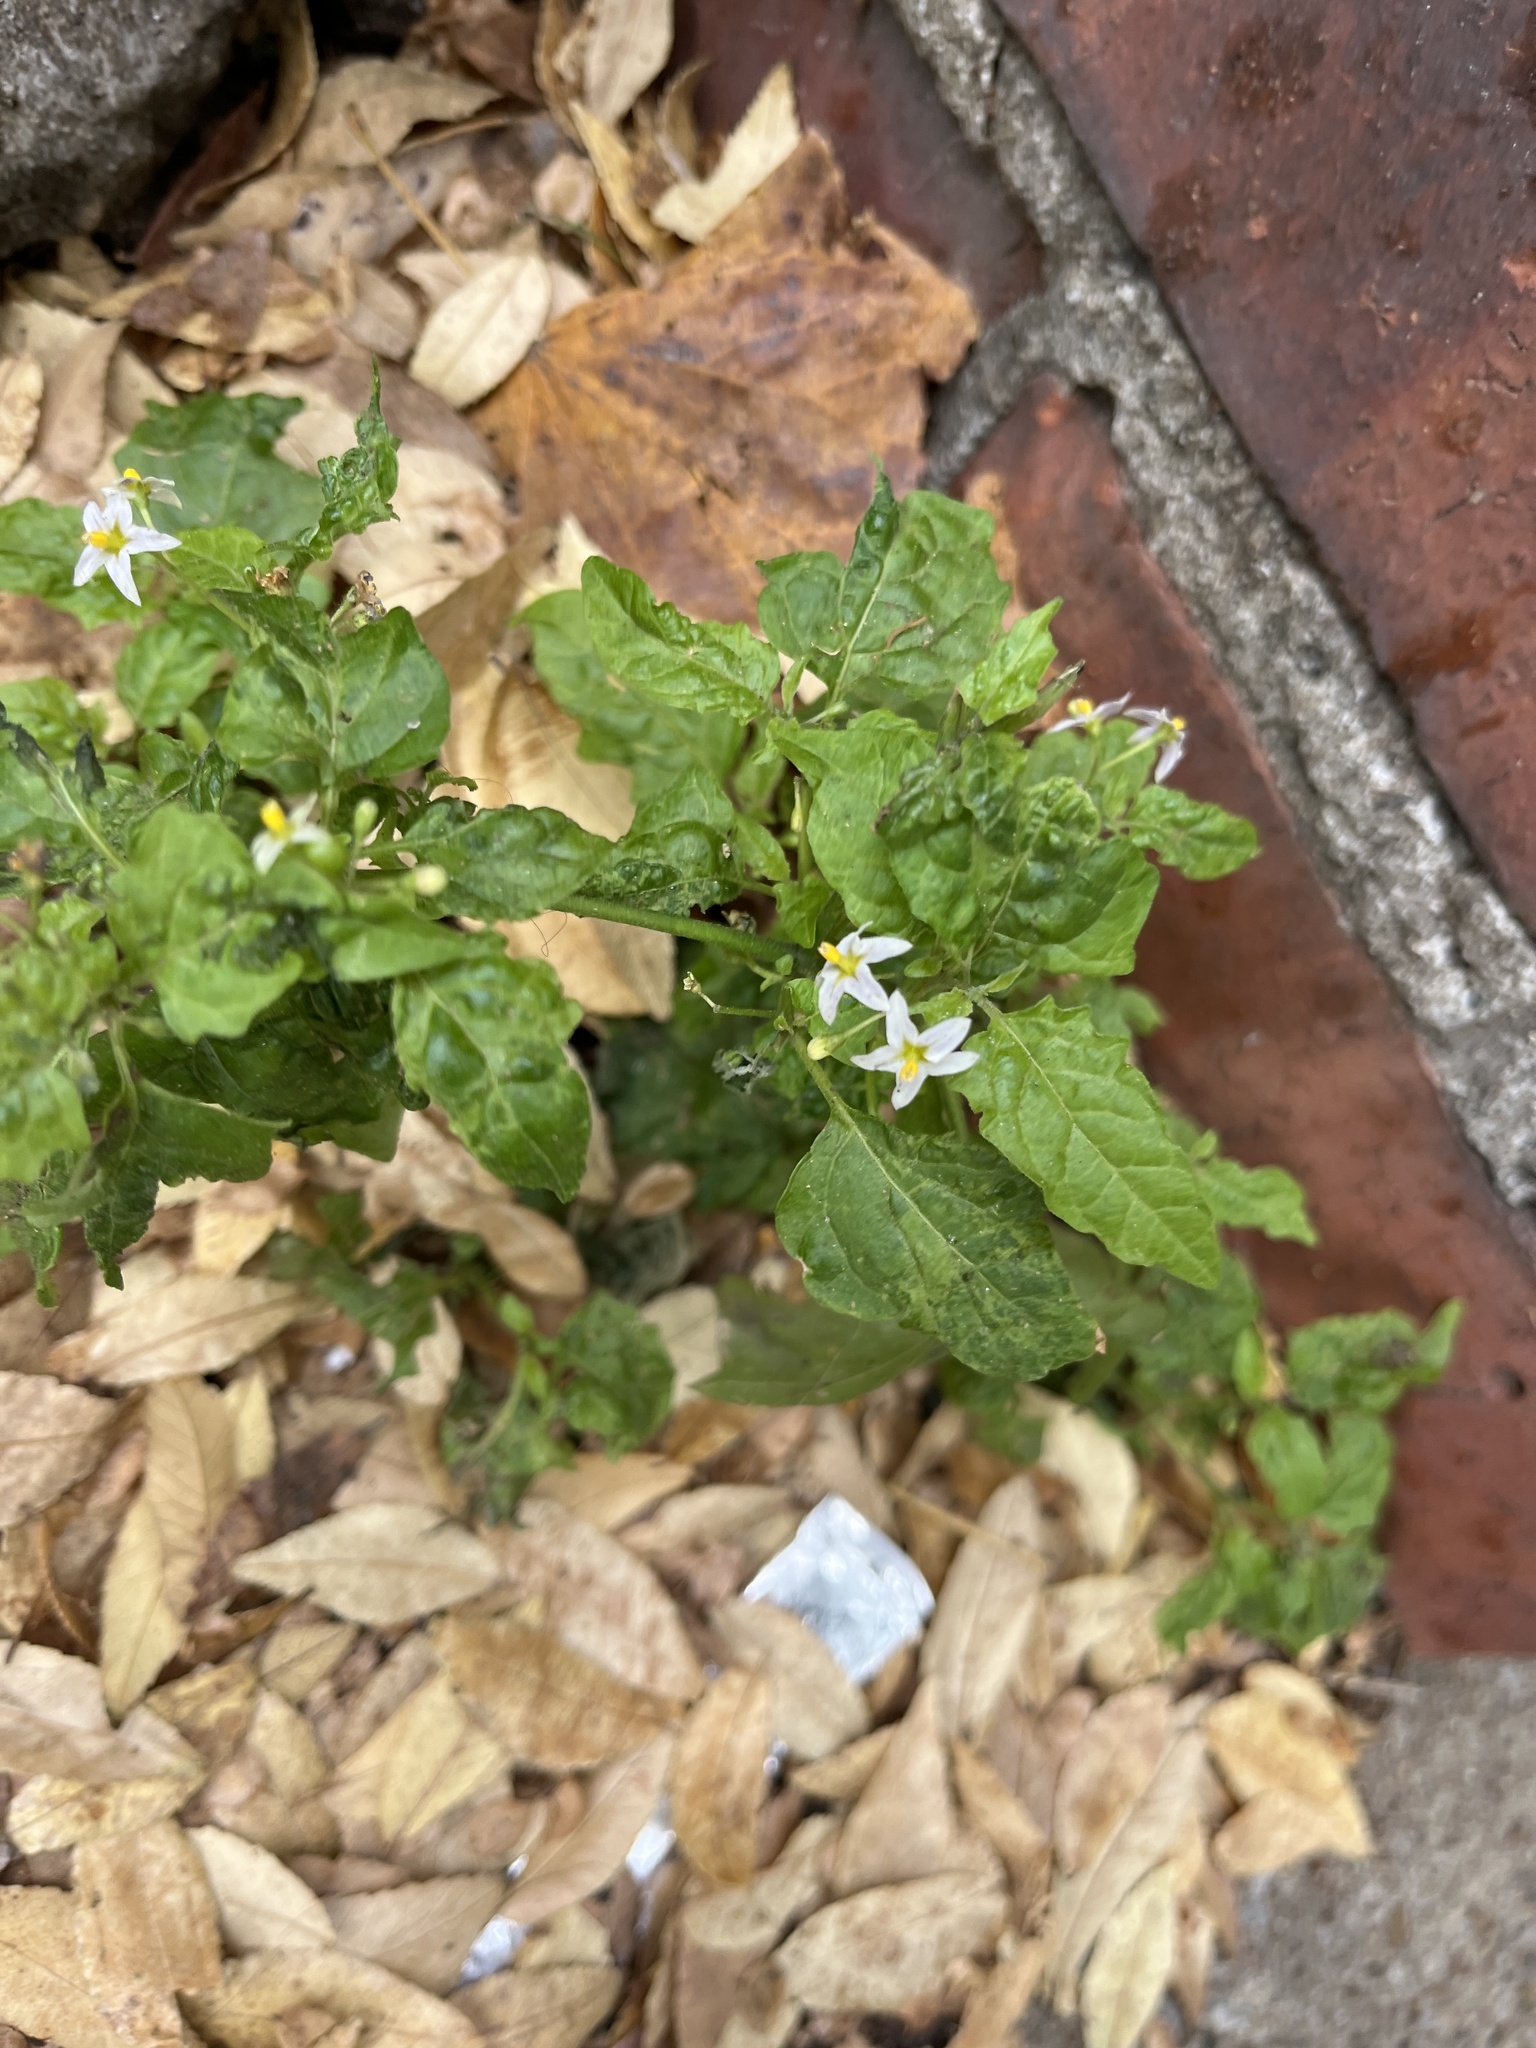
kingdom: Plantae
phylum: Tracheophyta
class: Magnoliopsida
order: Solanales
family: Solanaceae
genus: Solanum
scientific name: Solanum emulans
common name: Eastern black nightshade
